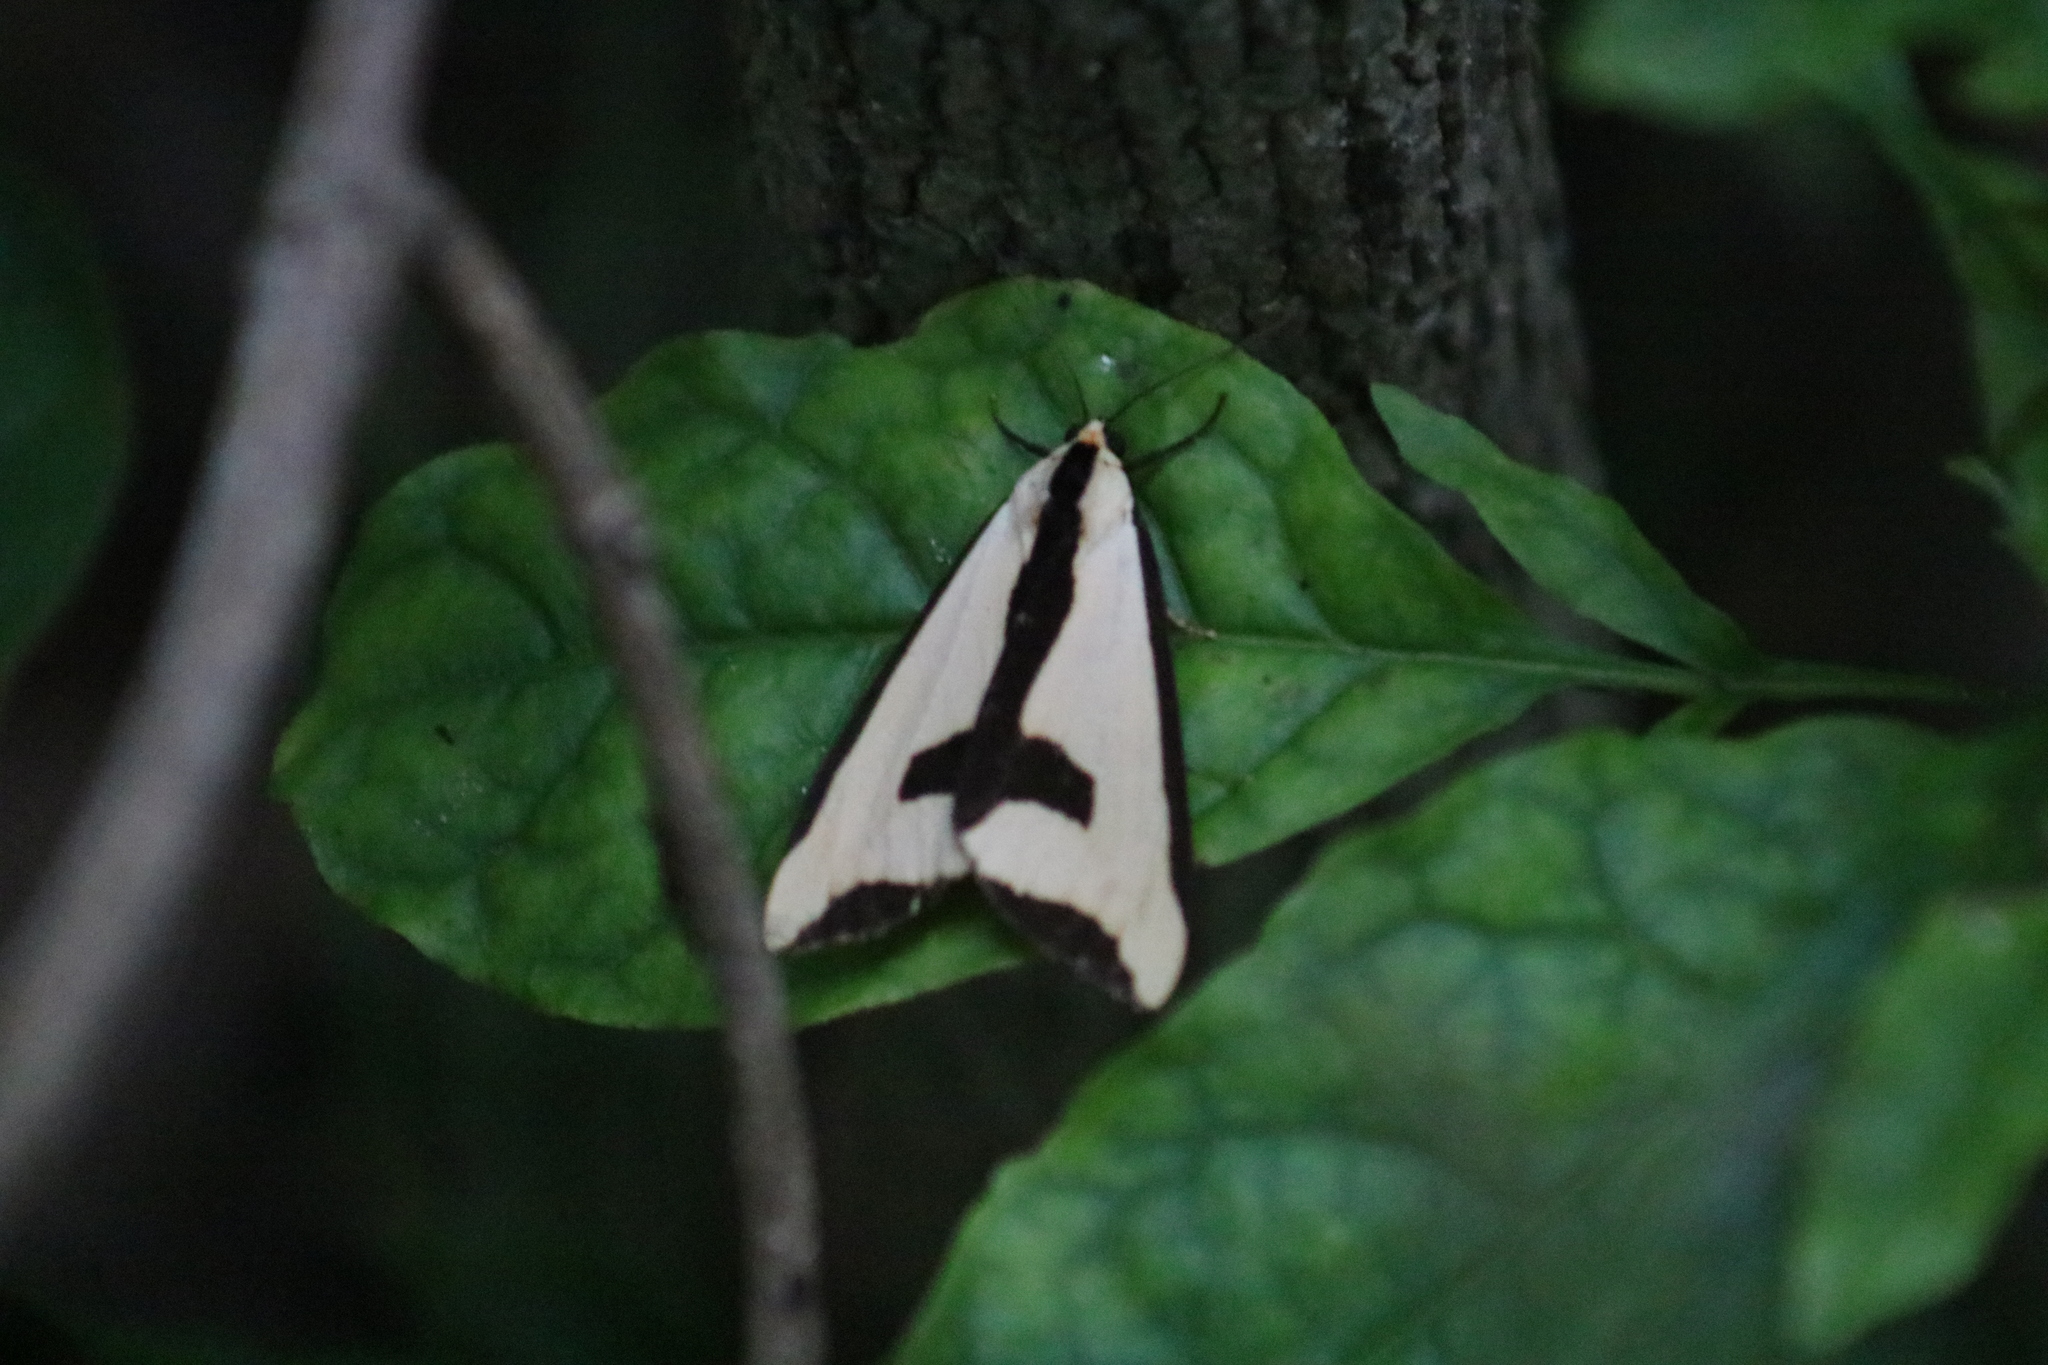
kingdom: Animalia
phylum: Arthropoda
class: Insecta
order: Lepidoptera
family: Erebidae
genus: Haploa
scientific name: Haploa clymene
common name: Clymene moth
